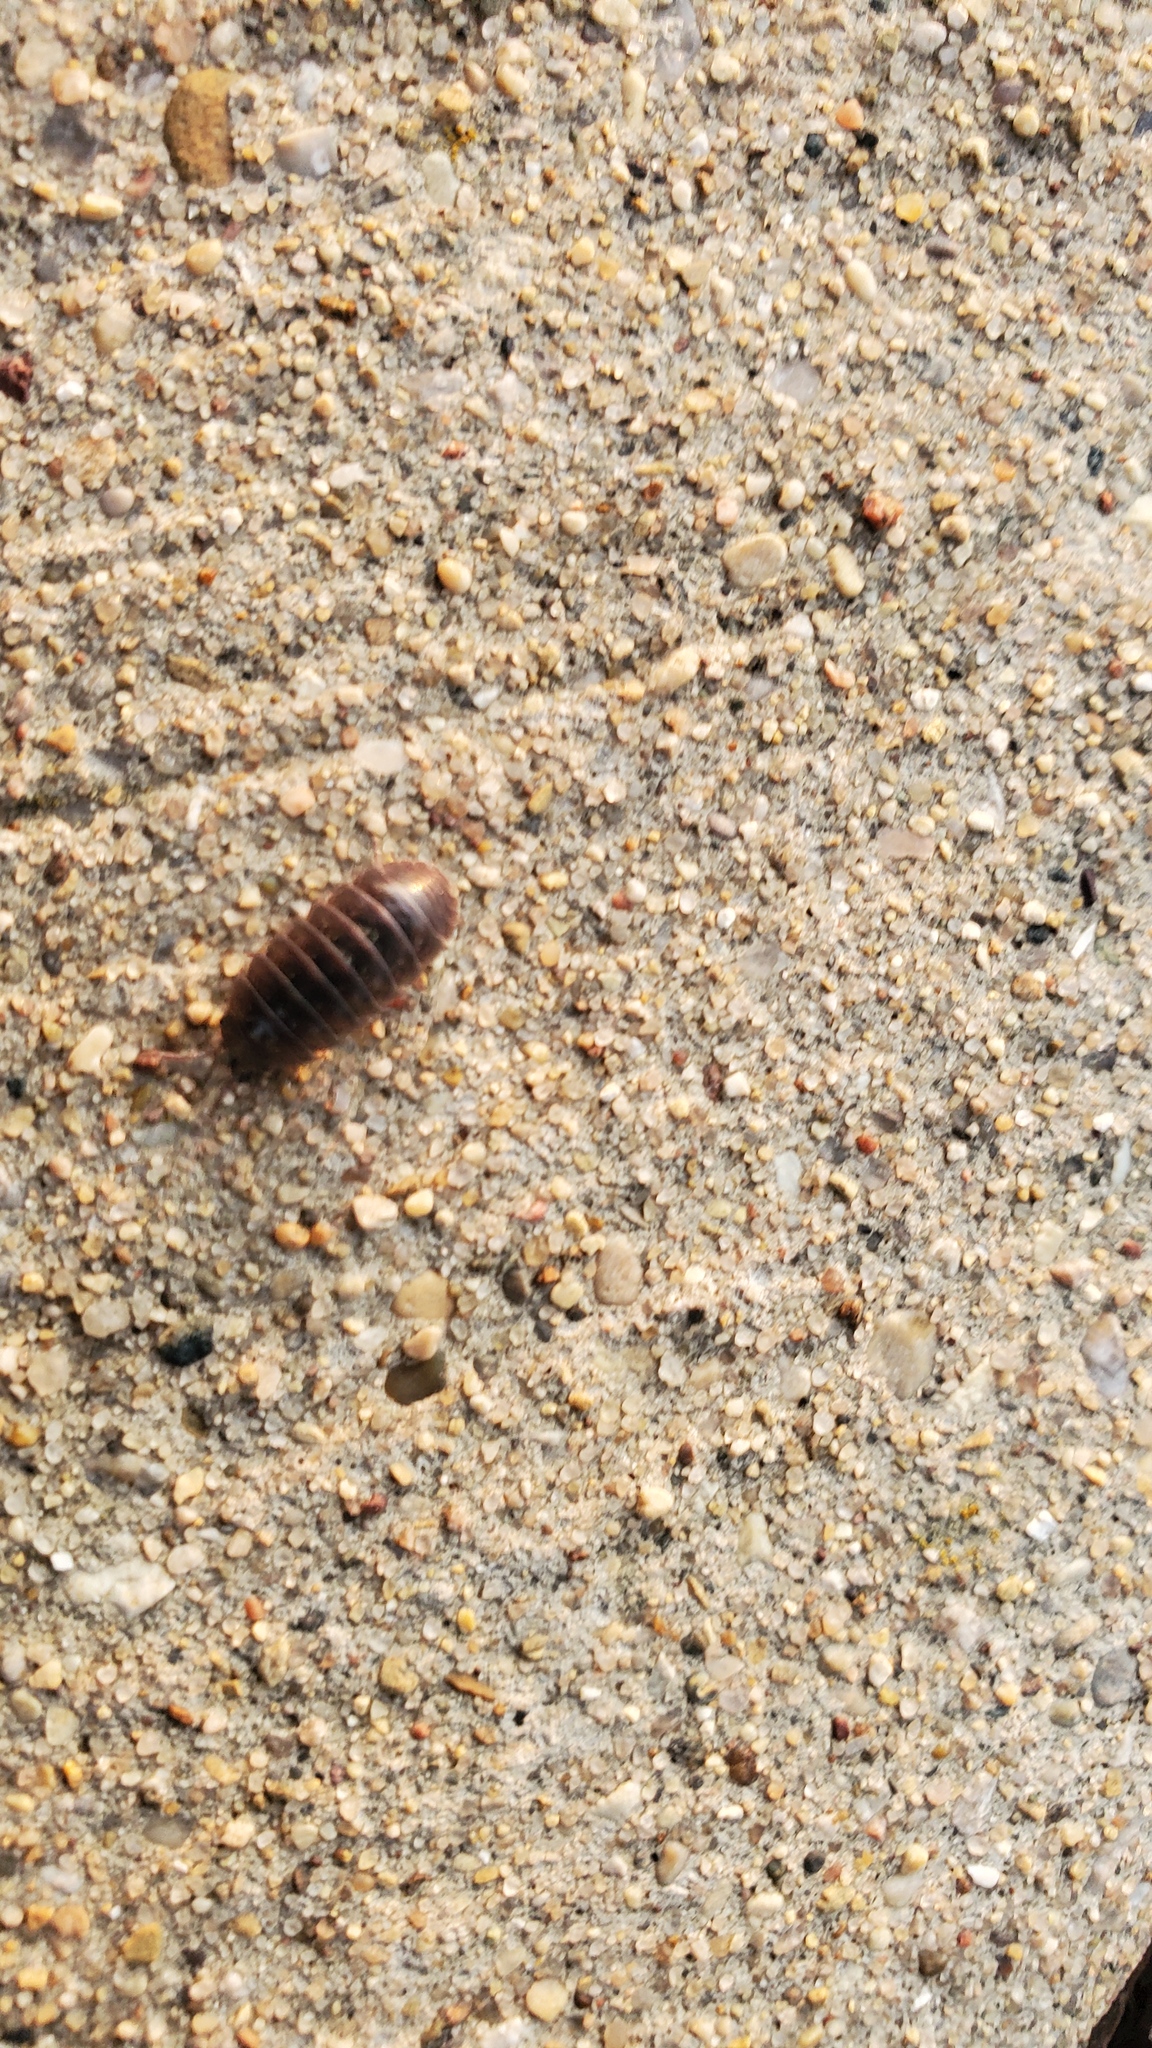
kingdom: Animalia
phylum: Arthropoda
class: Malacostraca
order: Isopoda
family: Armadillidiidae
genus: Armadillidium
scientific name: Armadillidium vulgare
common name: Common pill woodlouse
